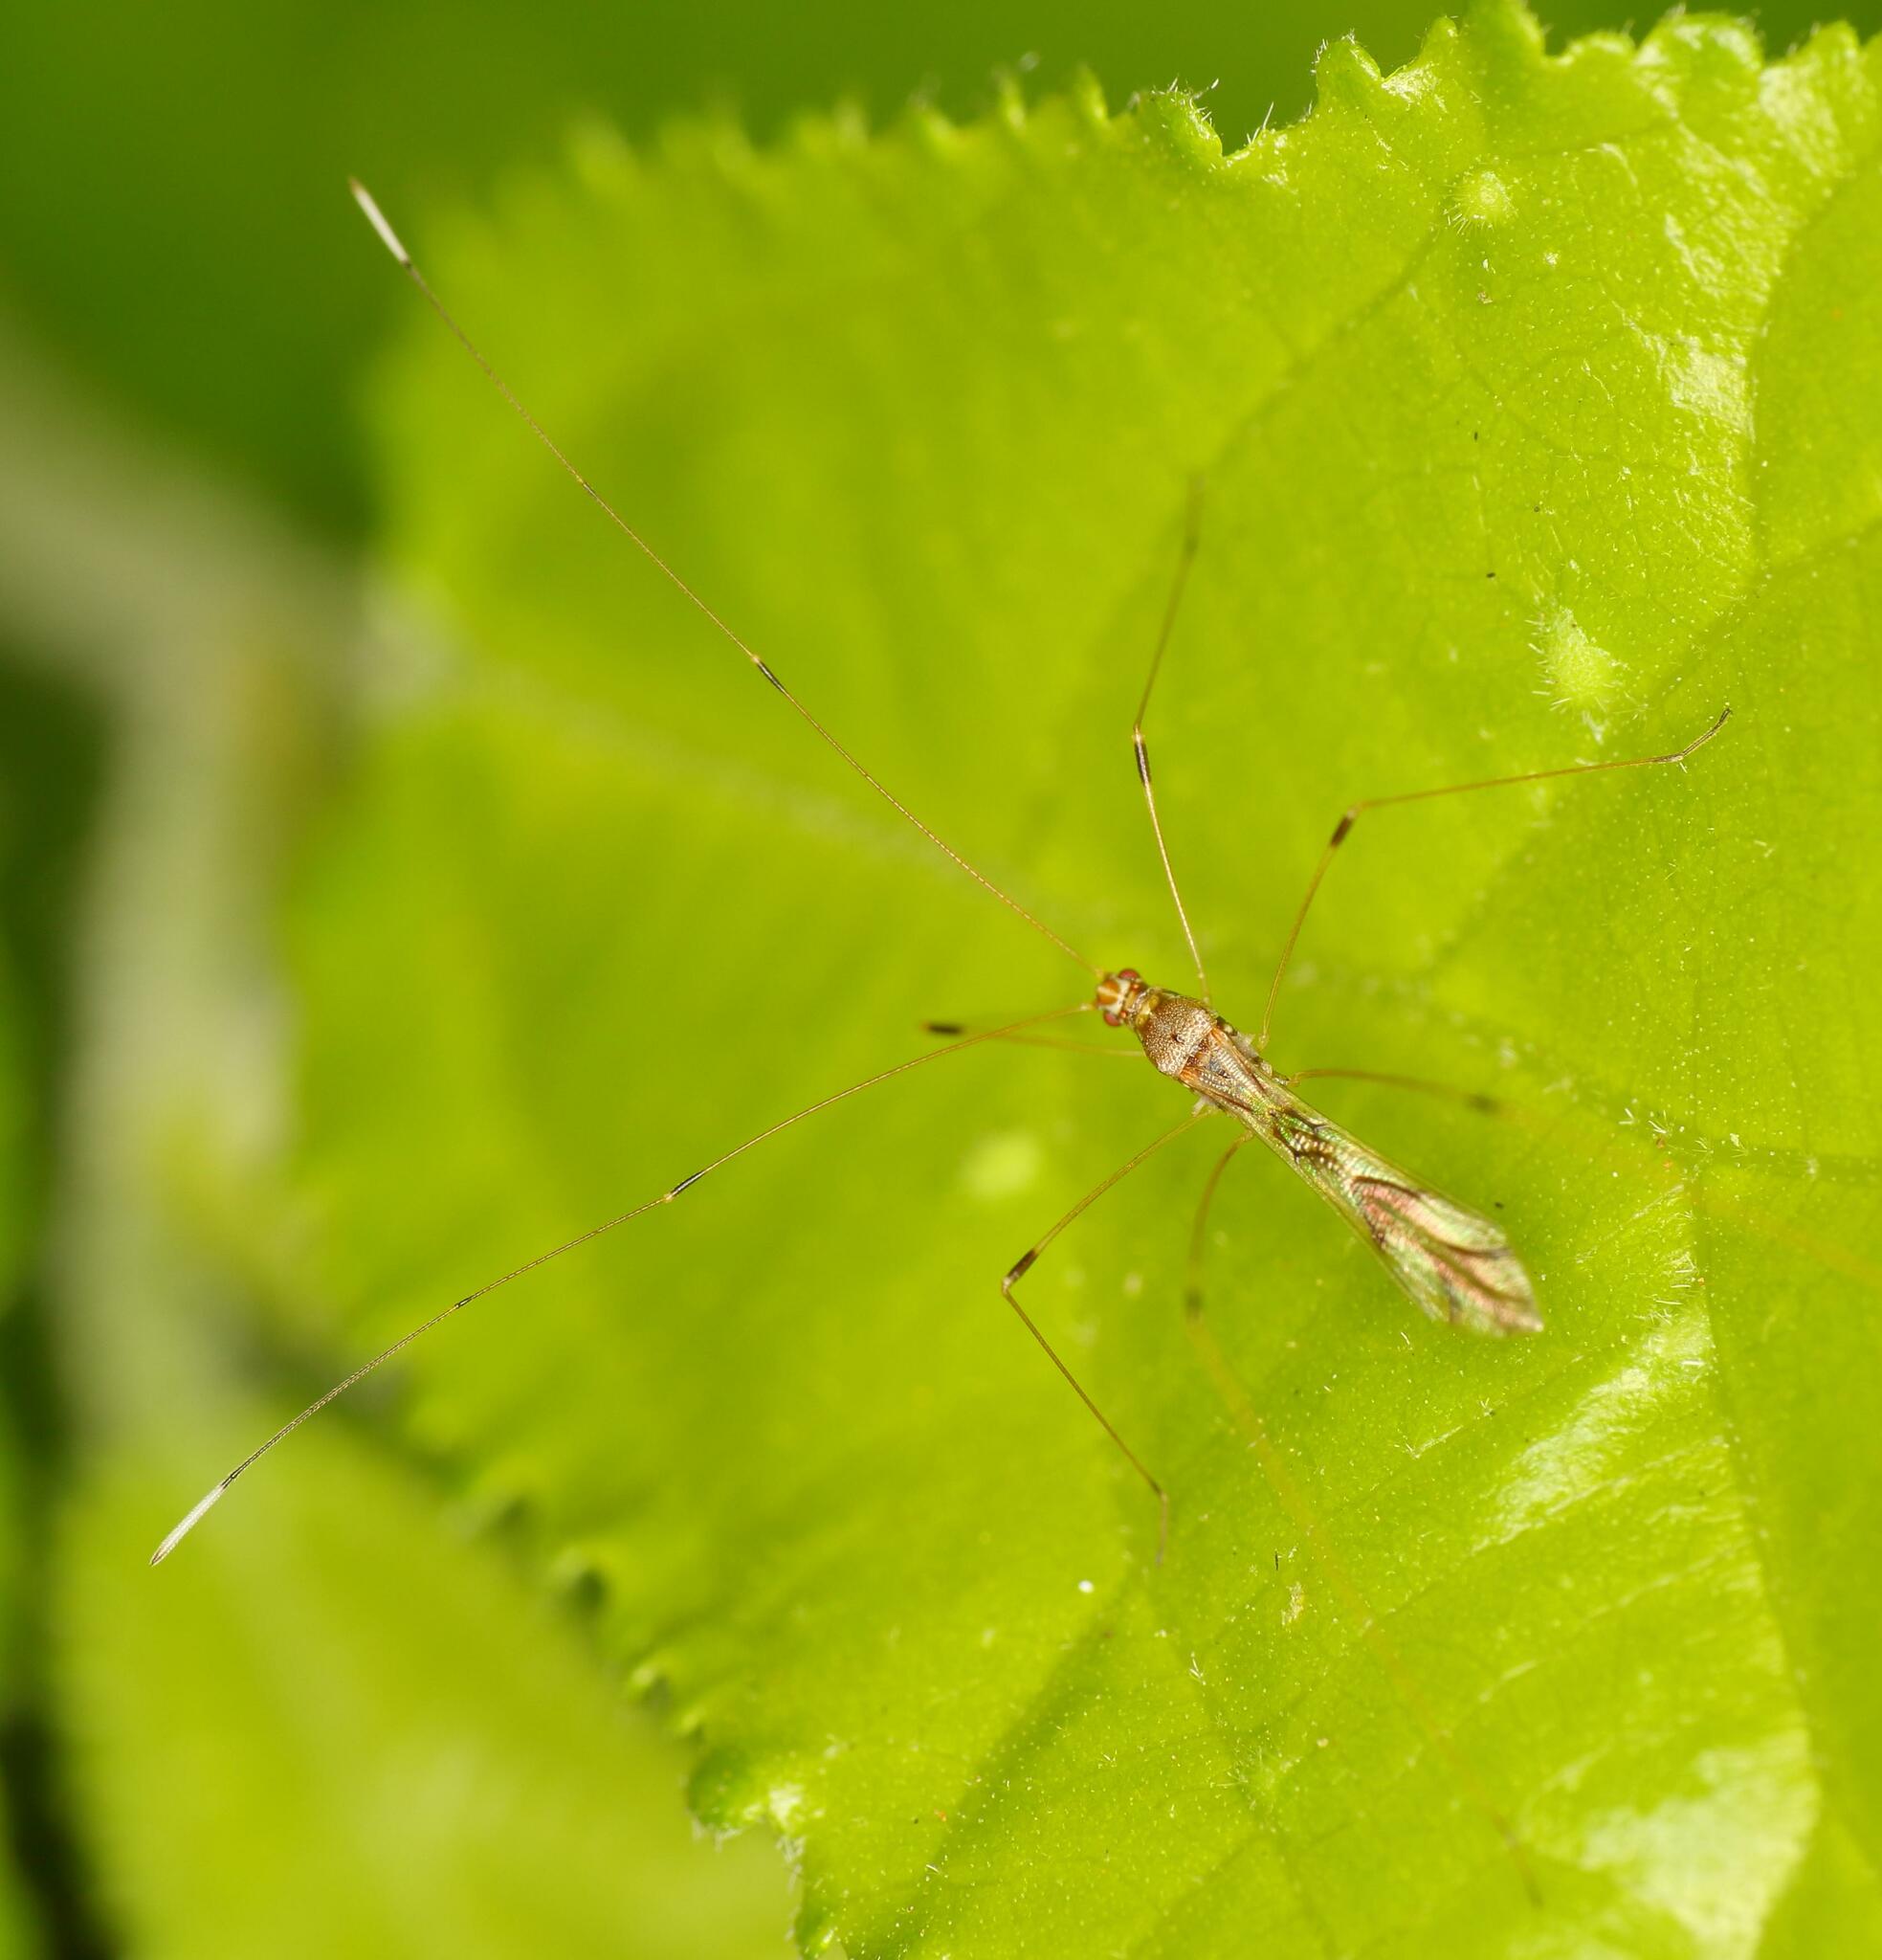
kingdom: Animalia
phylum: Arthropoda
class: Insecta
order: Hemiptera
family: Berytidae
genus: Neostusakia
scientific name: Neostusakia picticornis
